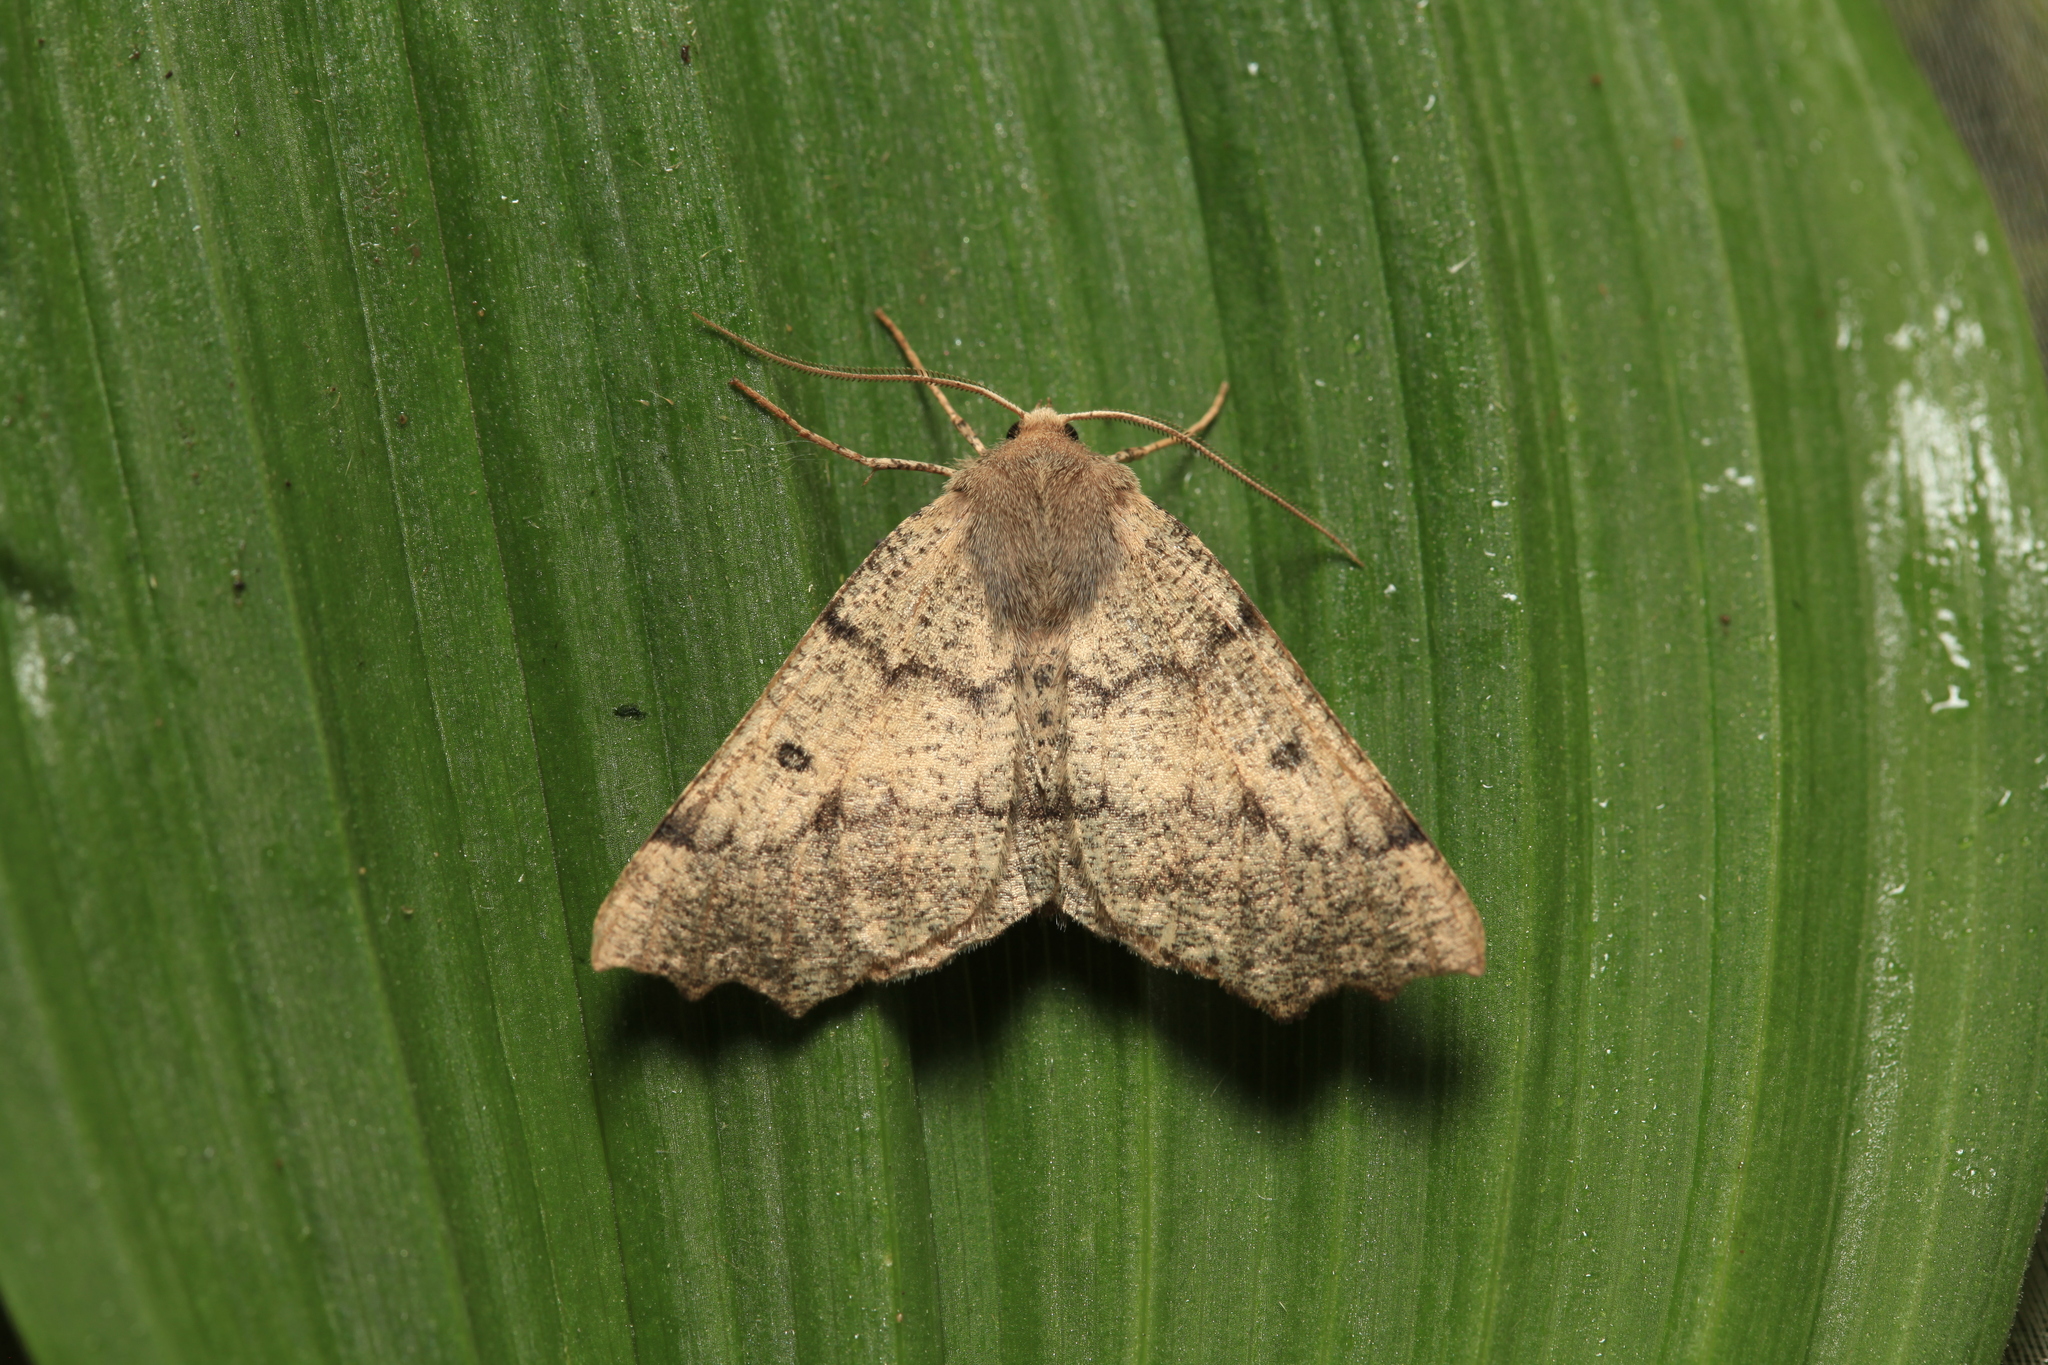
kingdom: Animalia
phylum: Arthropoda
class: Insecta
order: Lepidoptera
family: Geometridae
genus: Odontopera
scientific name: Odontopera bidentata
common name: Scalloped hazel
